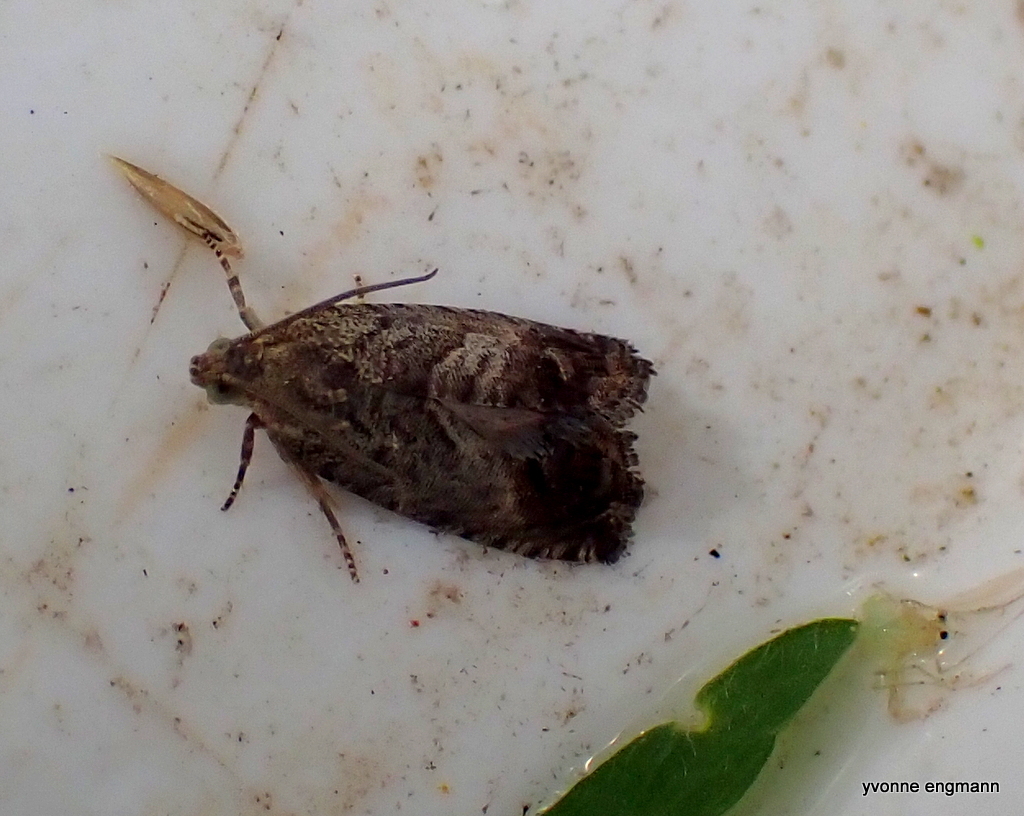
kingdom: Animalia
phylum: Arthropoda
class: Insecta
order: Lepidoptera
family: Tortricidae
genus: Cydia
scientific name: Cydia splendana
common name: De: kastanienwickler, eichenwickler es: oruga de la castaña fr: carpocapse des châtaignes it: cidia o tortrice tardiva delle castagne pt: bichado das castanhas gb: acorn moth, chestnut fruit tortrix
